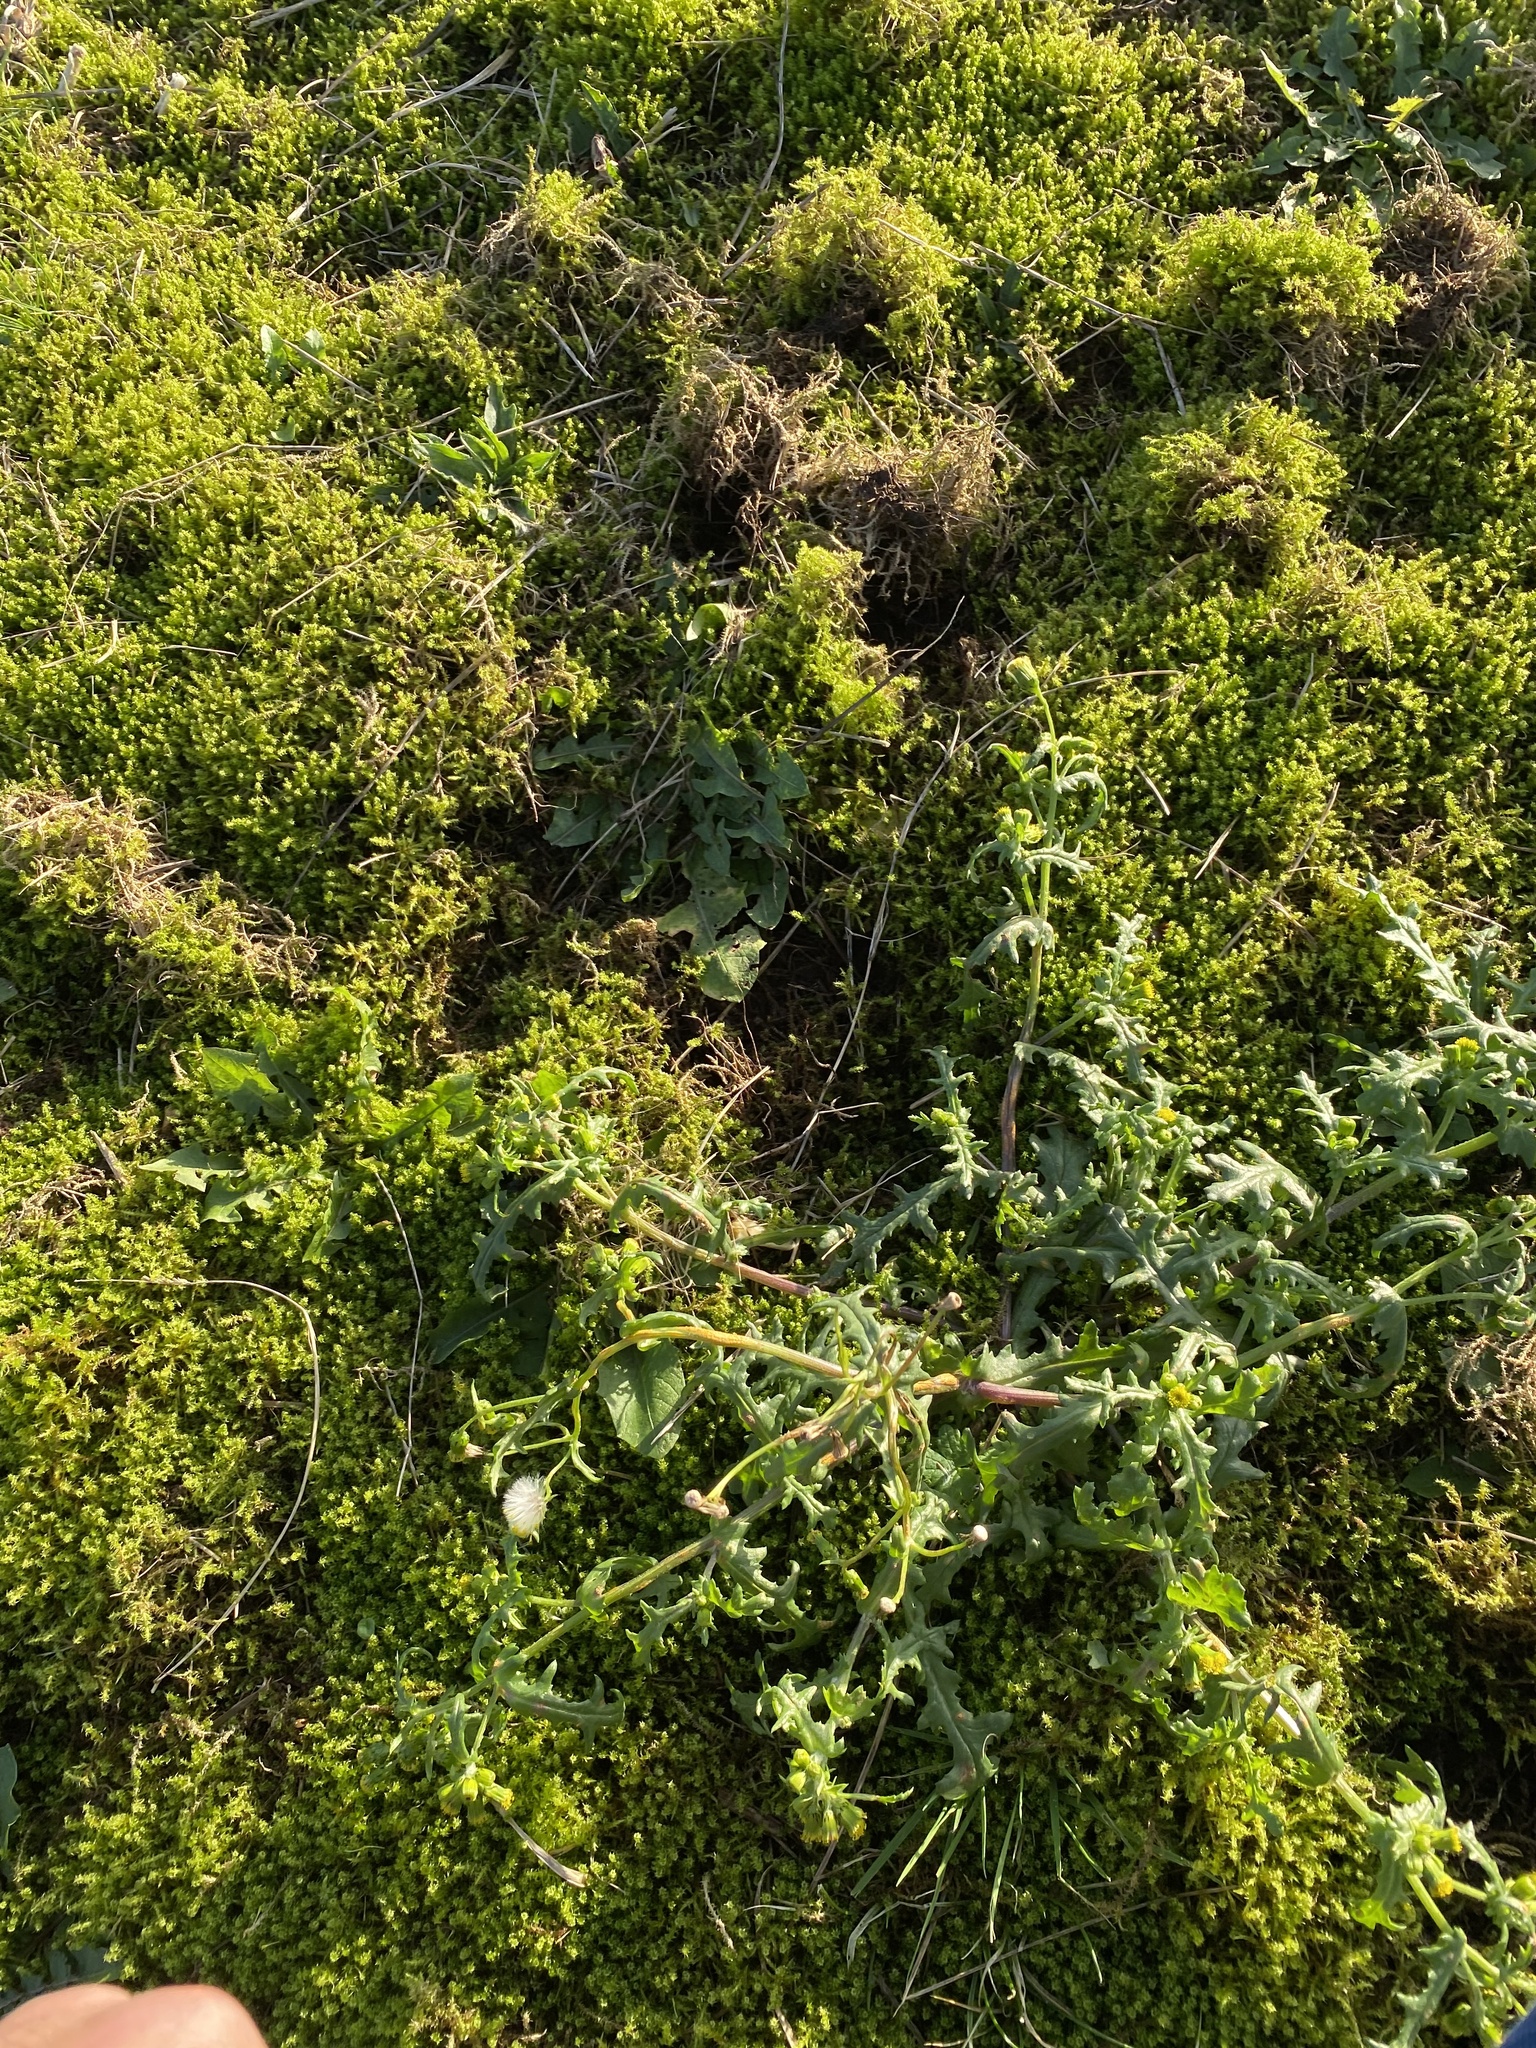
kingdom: Plantae
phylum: Tracheophyta
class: Magnoliopsida
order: Asterales
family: Asteraceae
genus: Senecio
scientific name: Senecio vulgaris
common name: Old-man-in-the-spring
